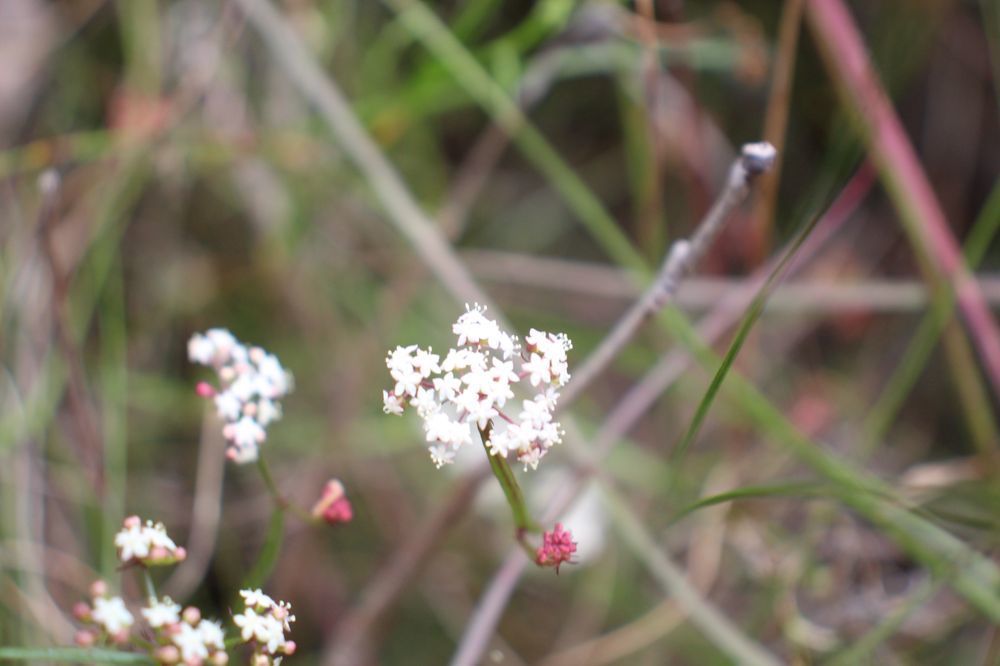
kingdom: Plantae
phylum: Tracheophyta
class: Magnoliopsida
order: Apiales
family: Apiaceae
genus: Platysace
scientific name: Platysace compressa
